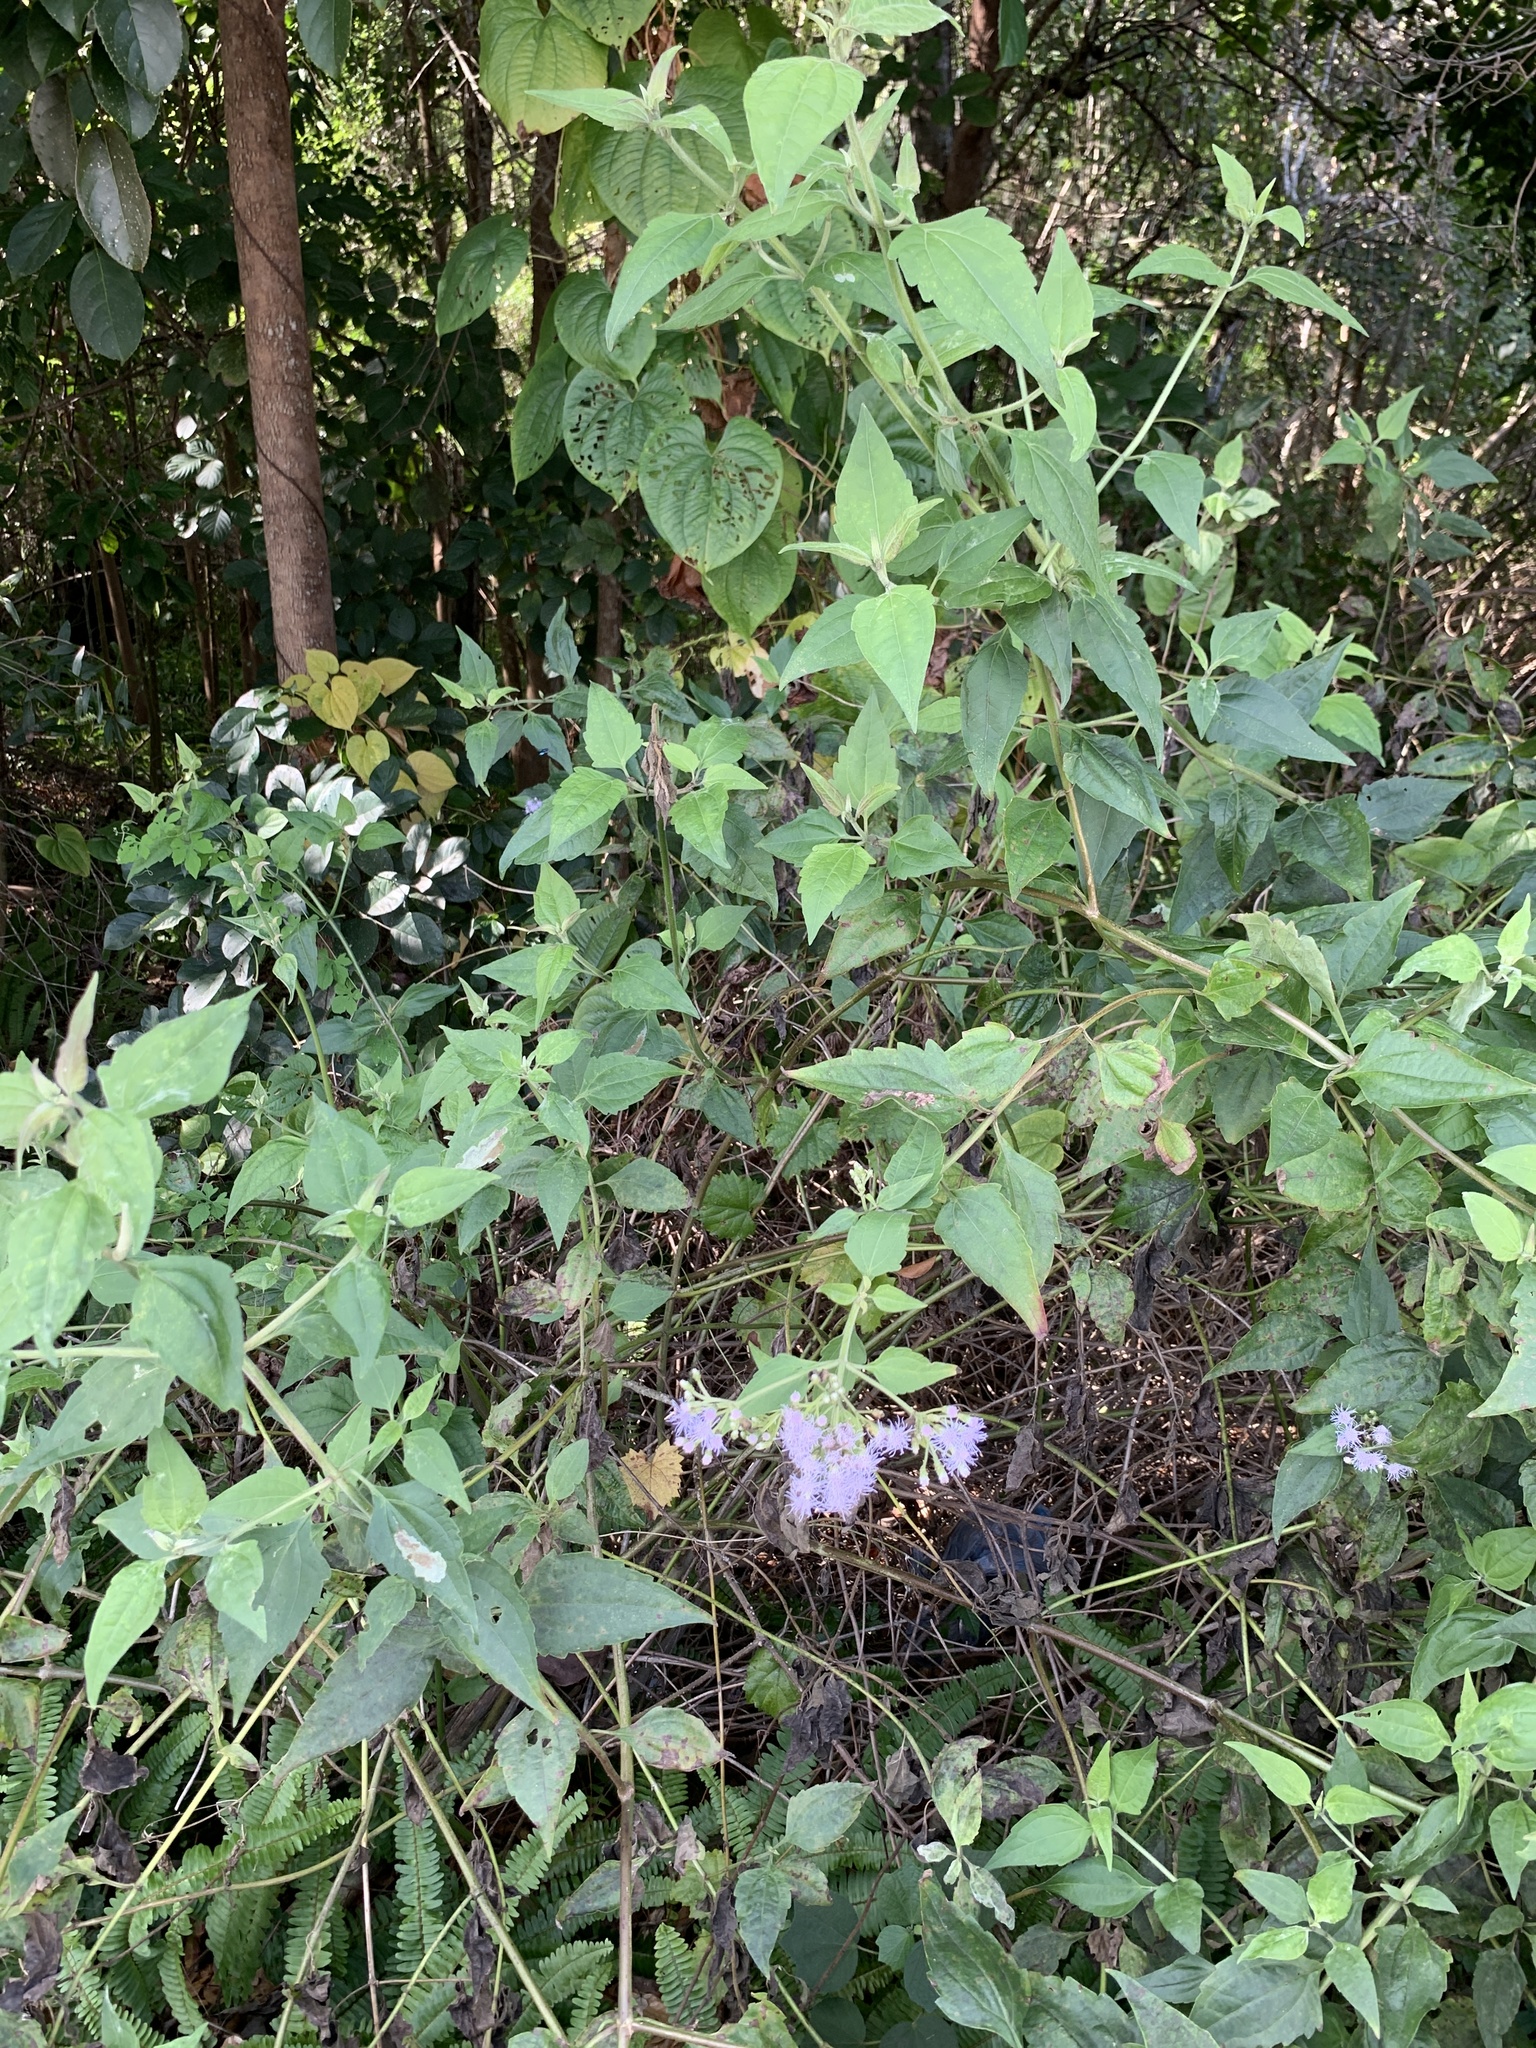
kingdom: Plantae
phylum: Tracheophyta
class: Magnoliopsida
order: Asterales
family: Asteraceae
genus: Chromolaena
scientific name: Chromolaena odorata
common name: Siamweed
